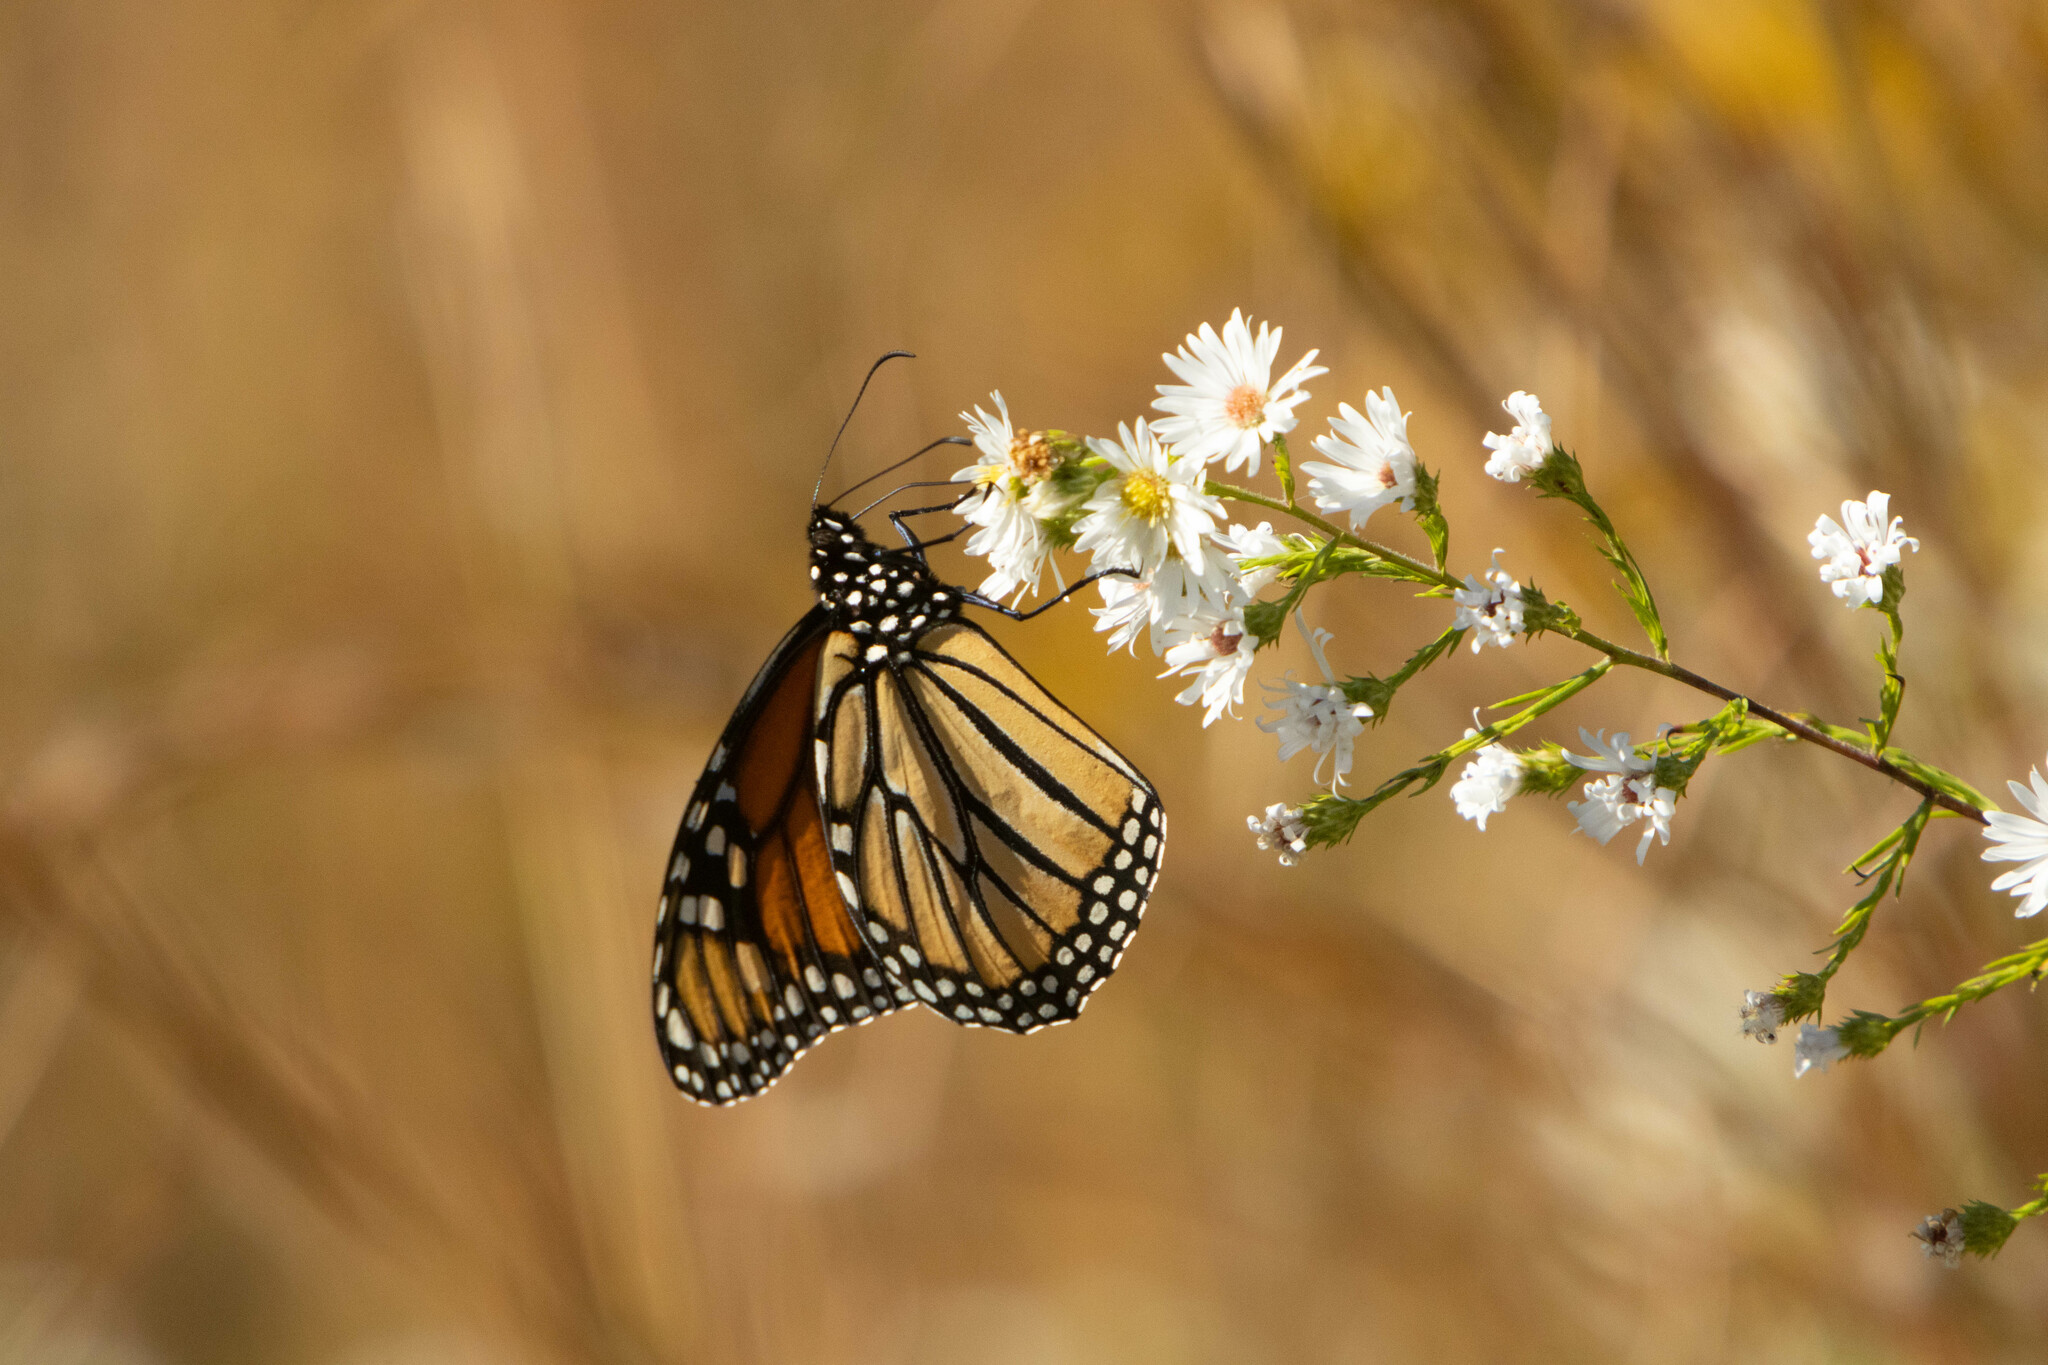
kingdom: Animalia
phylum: Arthropoda
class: Insecta
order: Lepidoptera
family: Nymphalidae
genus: Danaus
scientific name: Danaus plexippus
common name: Monarch
